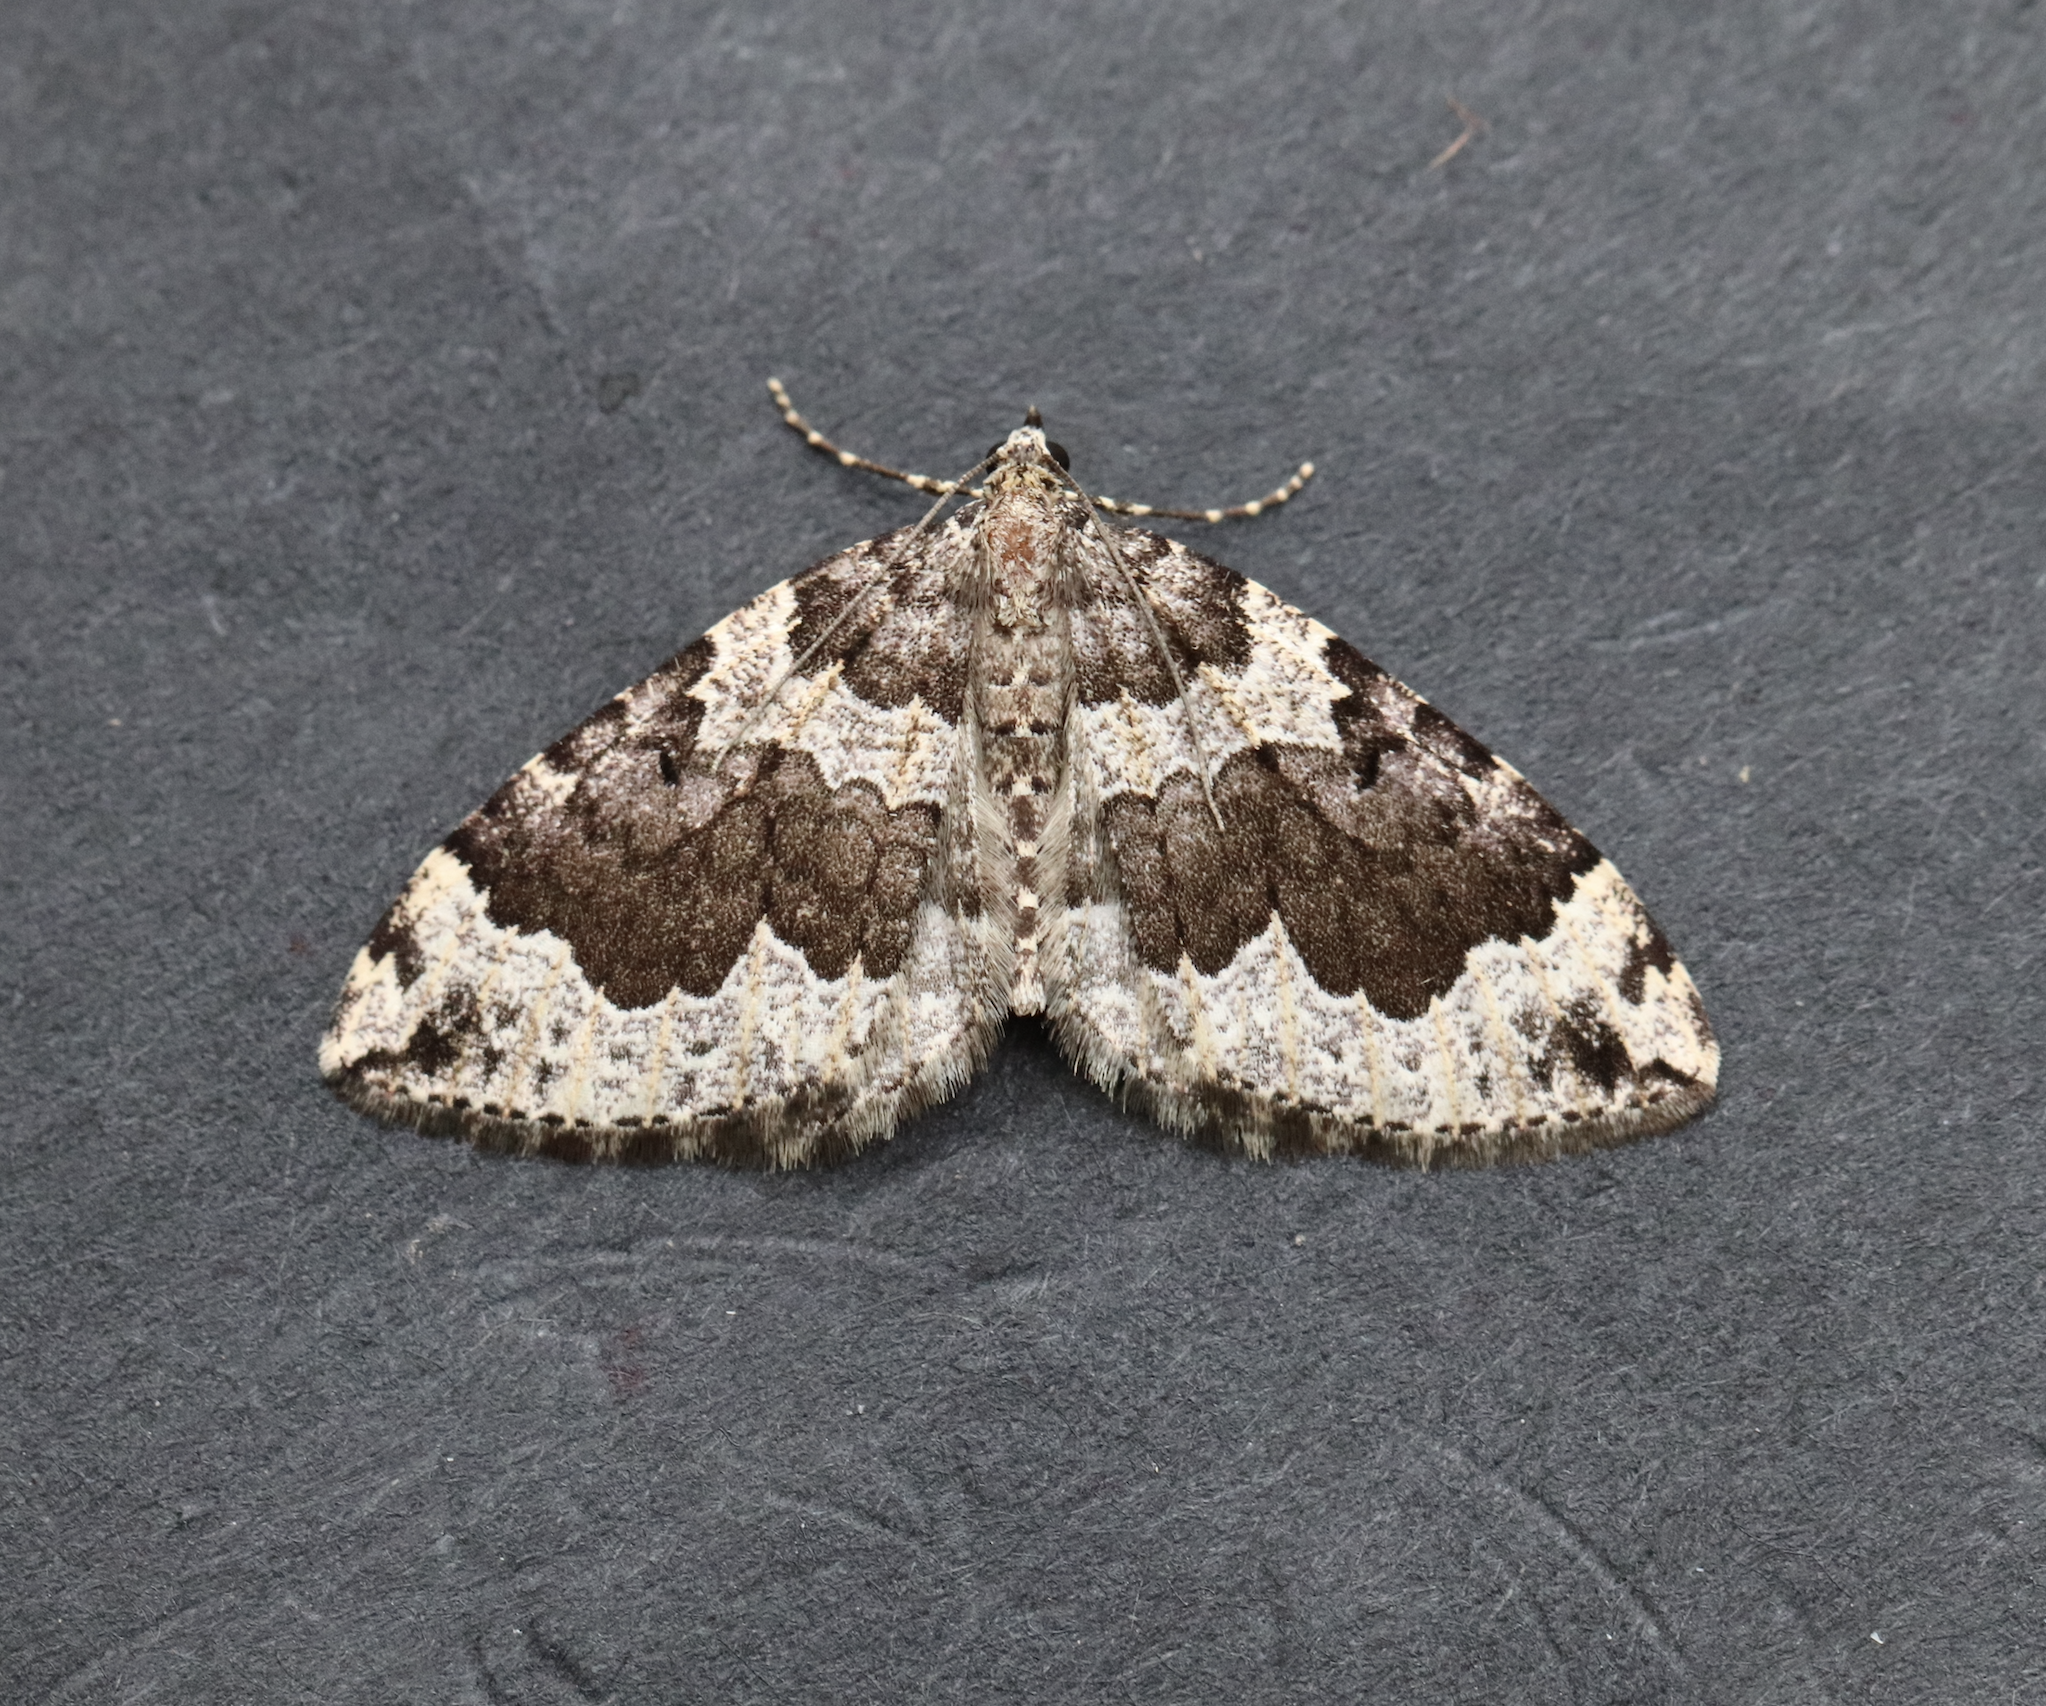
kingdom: Animalia
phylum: Arthropoda
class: Insecta
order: Lepidoptera
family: Geometridae
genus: Eustroma
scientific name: Eustroma semiatrata
